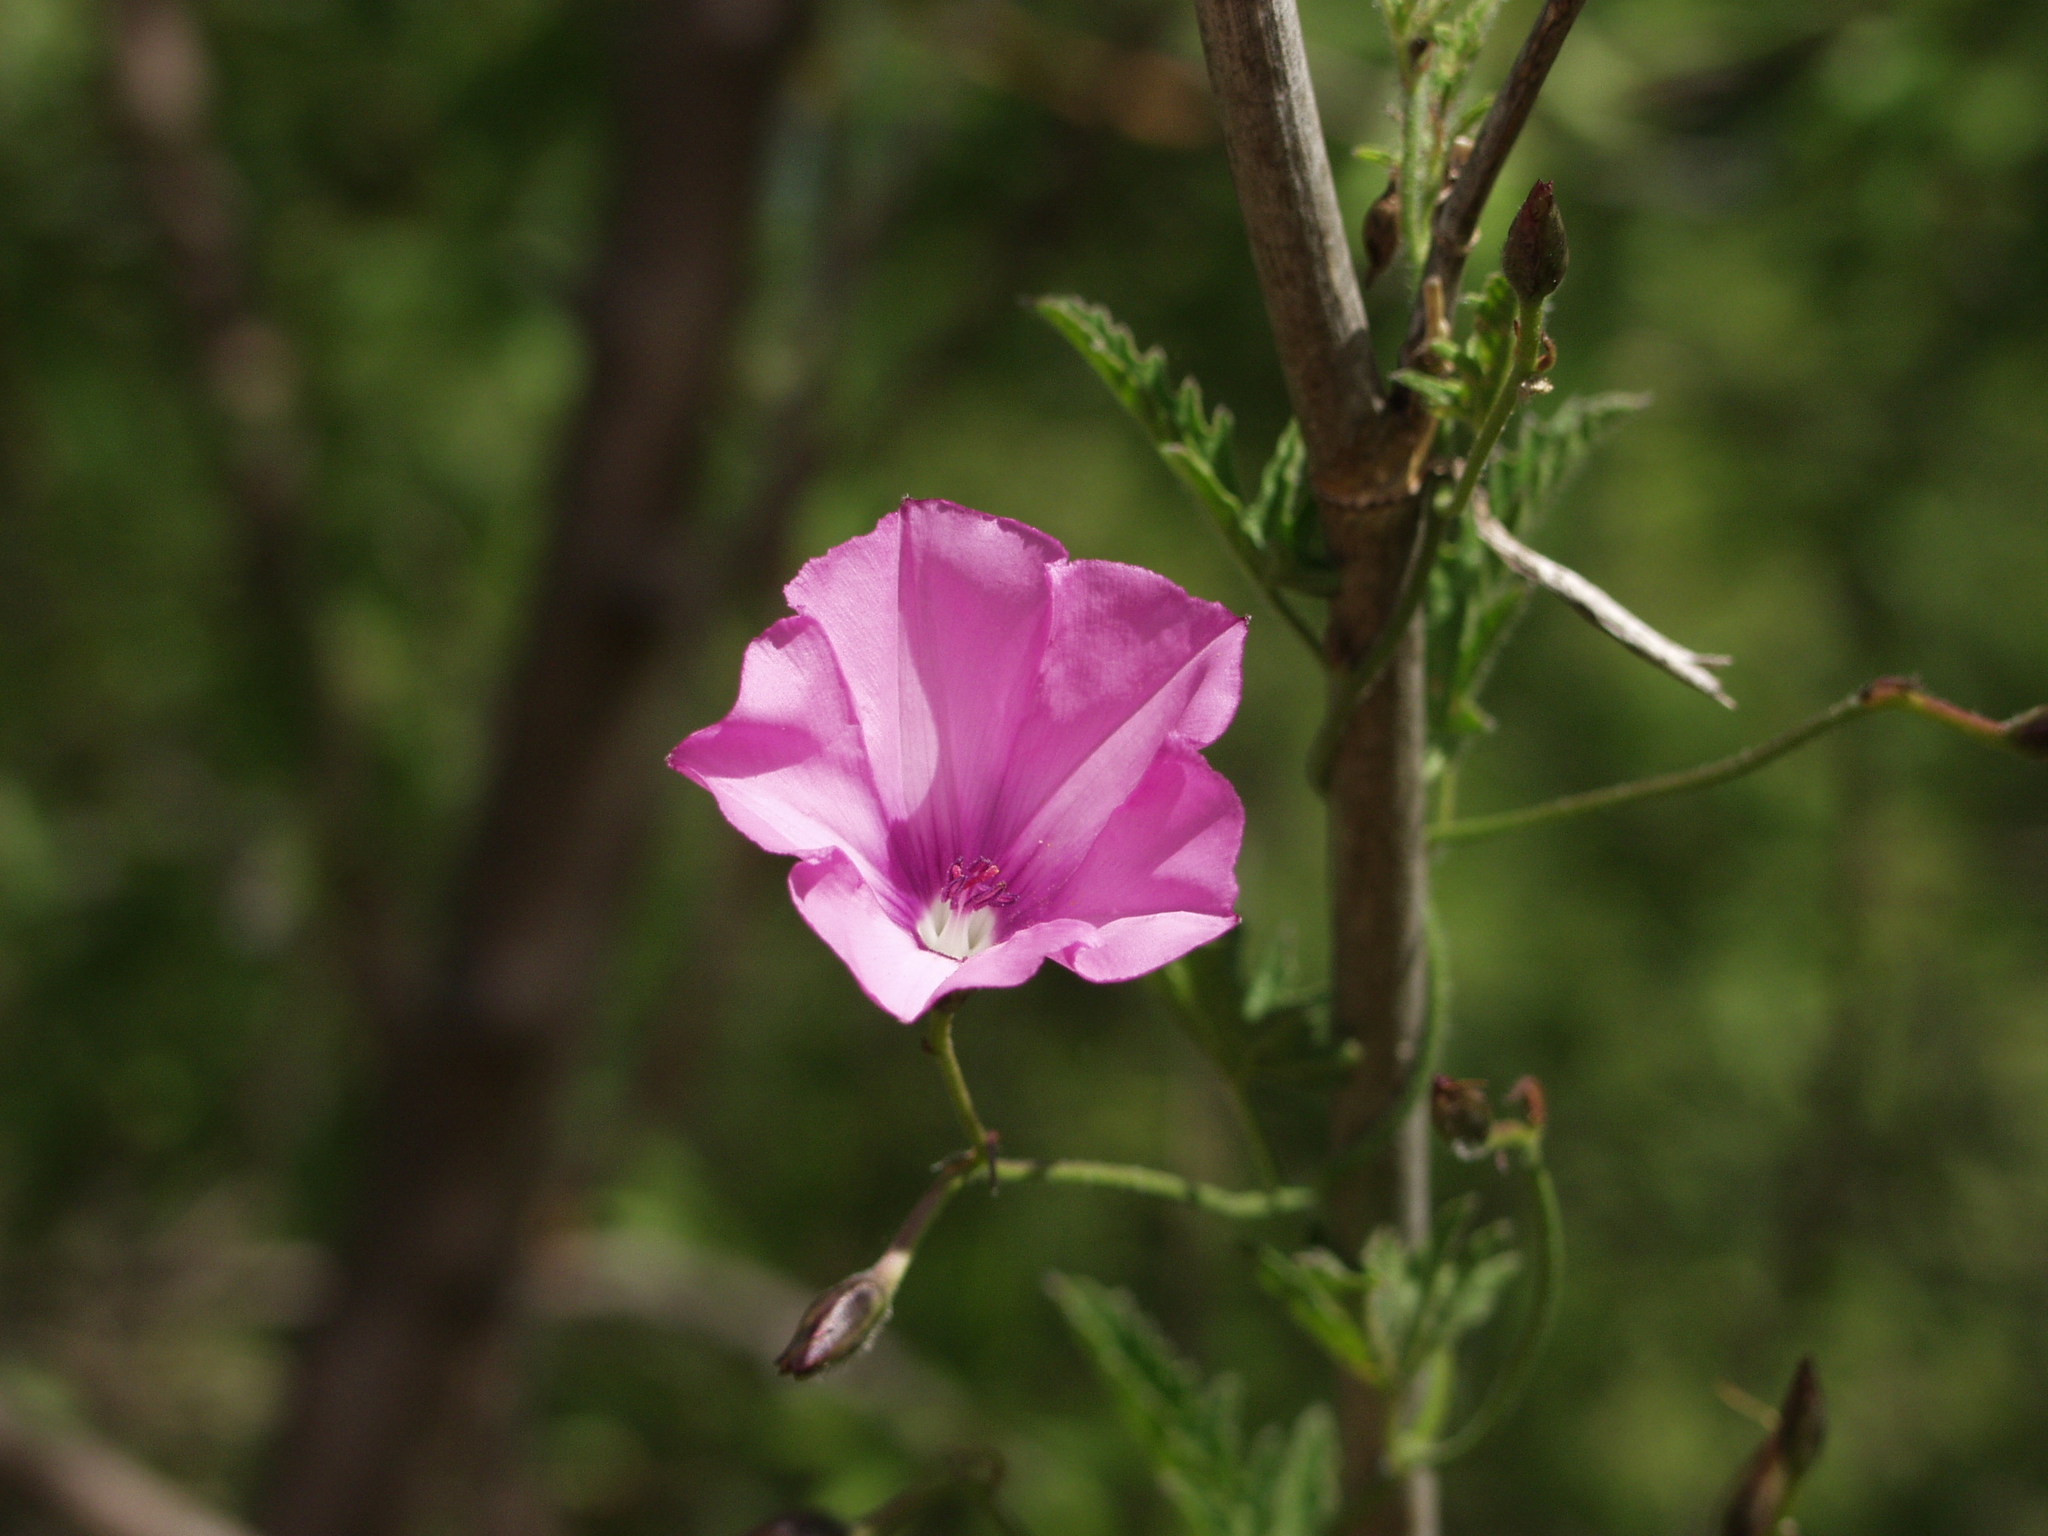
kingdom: Plantae
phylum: Tracheophyta
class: Magnoliopsida
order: Solanales
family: Convolvulaceae
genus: Convolvulus
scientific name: Convolvulus althaeoides
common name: Mallow bindweed
